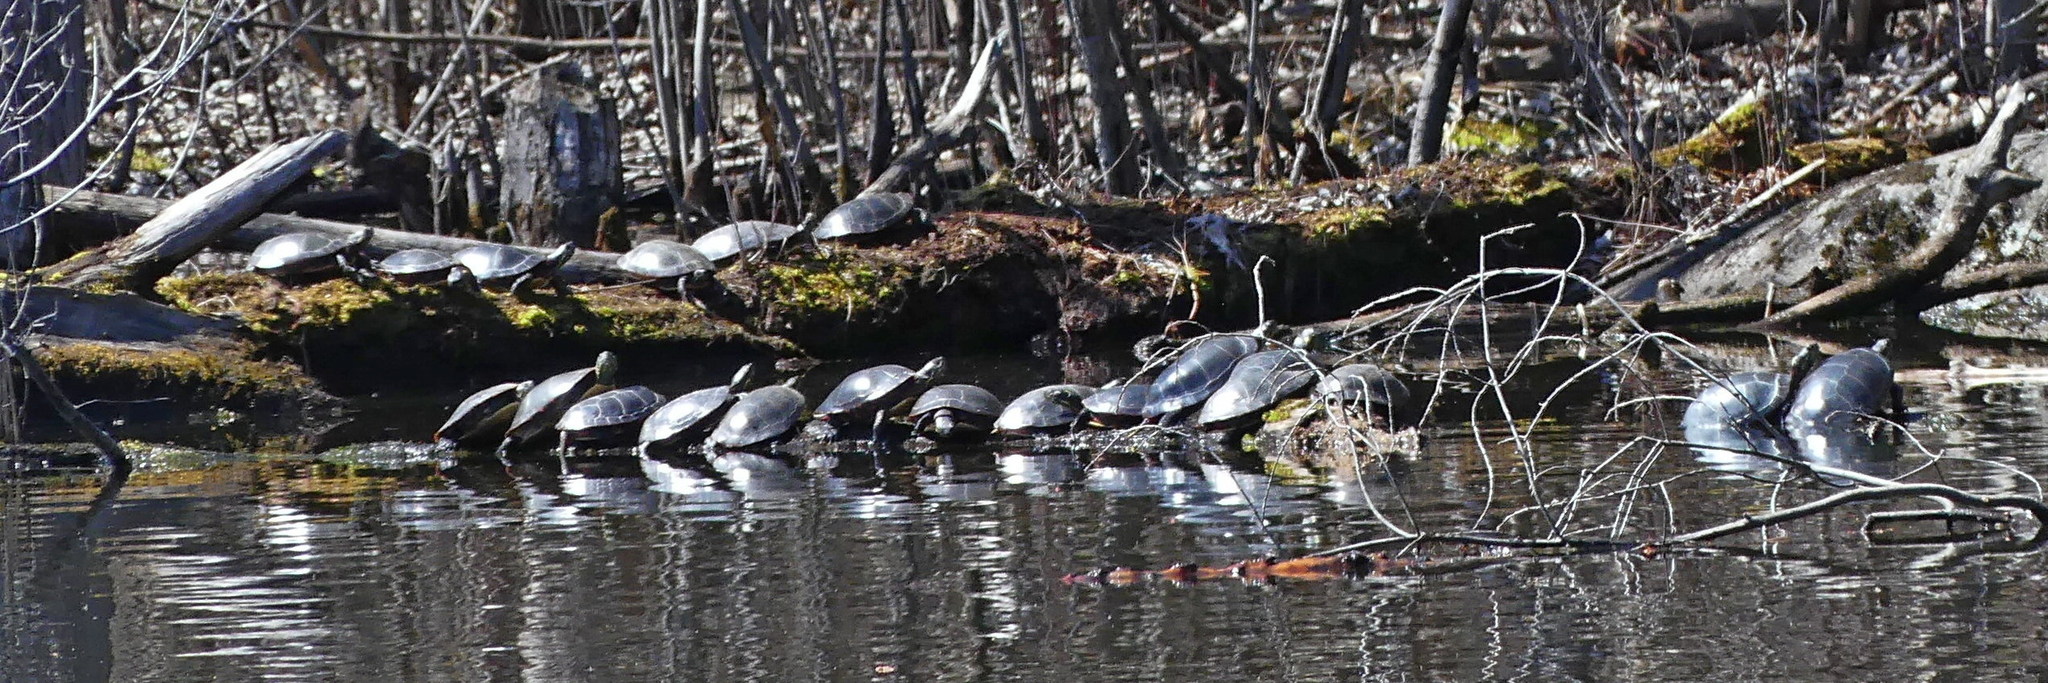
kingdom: Animalia
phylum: Chordata
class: Testudines
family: Emydidae
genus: Chrysemys
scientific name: Chrysemys picta
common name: Painted turtle
